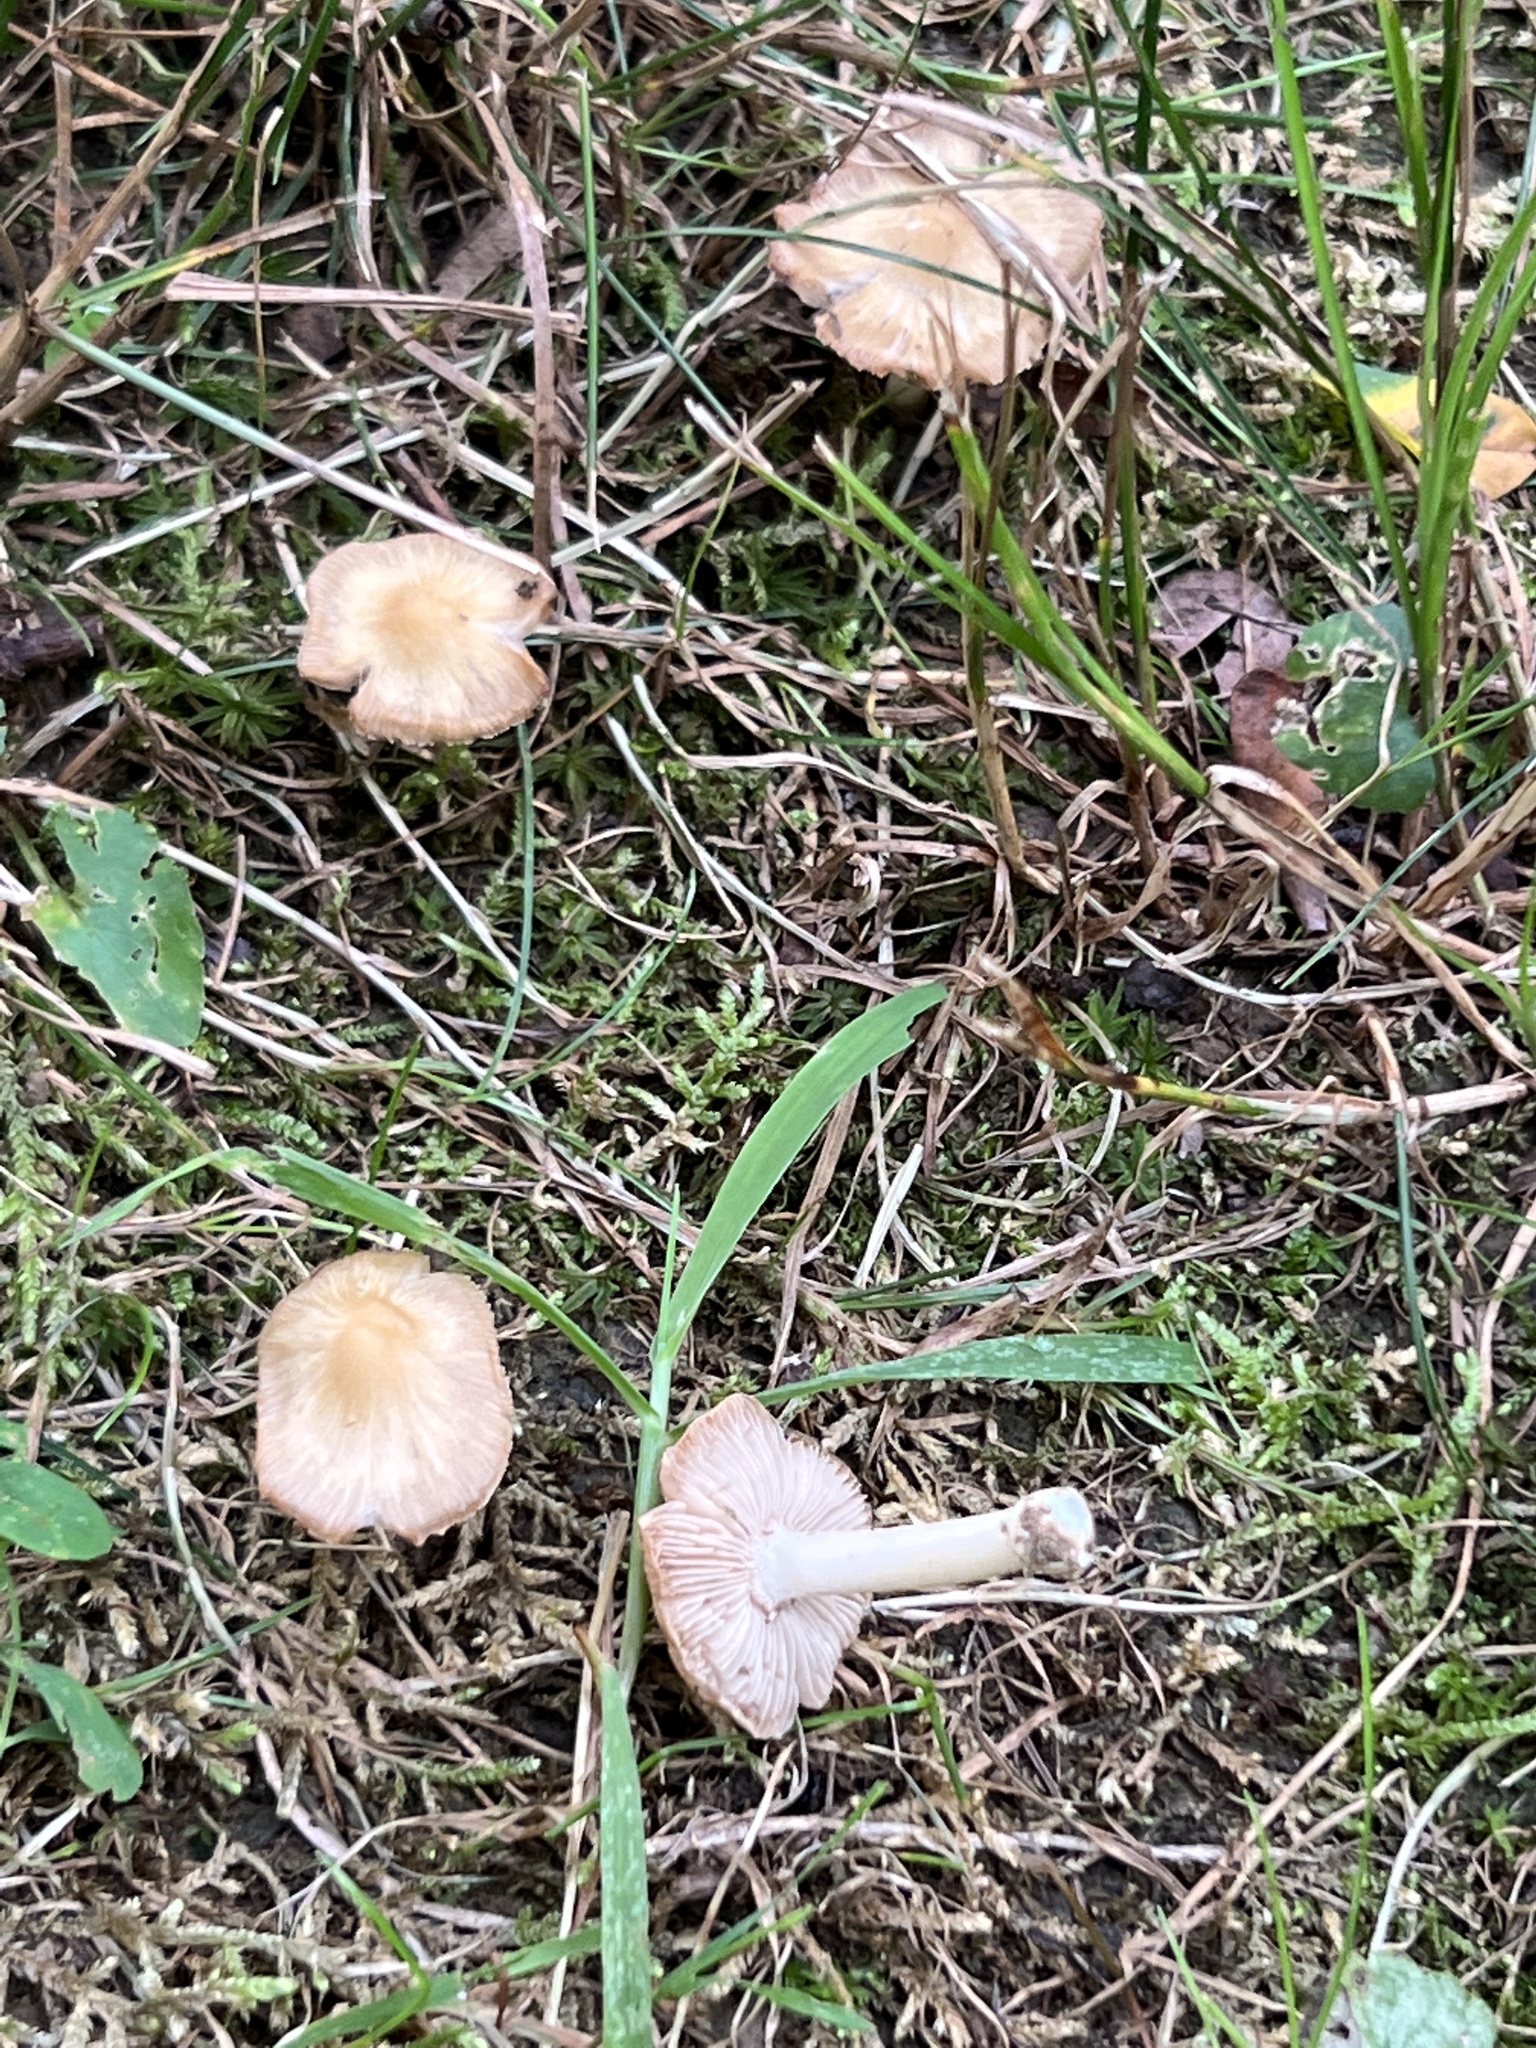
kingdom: Fungi
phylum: Basidiomycota
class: Agaricomycetes
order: Agaricales
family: Inocybaceae
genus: Pseudosperma
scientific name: Pseudosperma sororium
